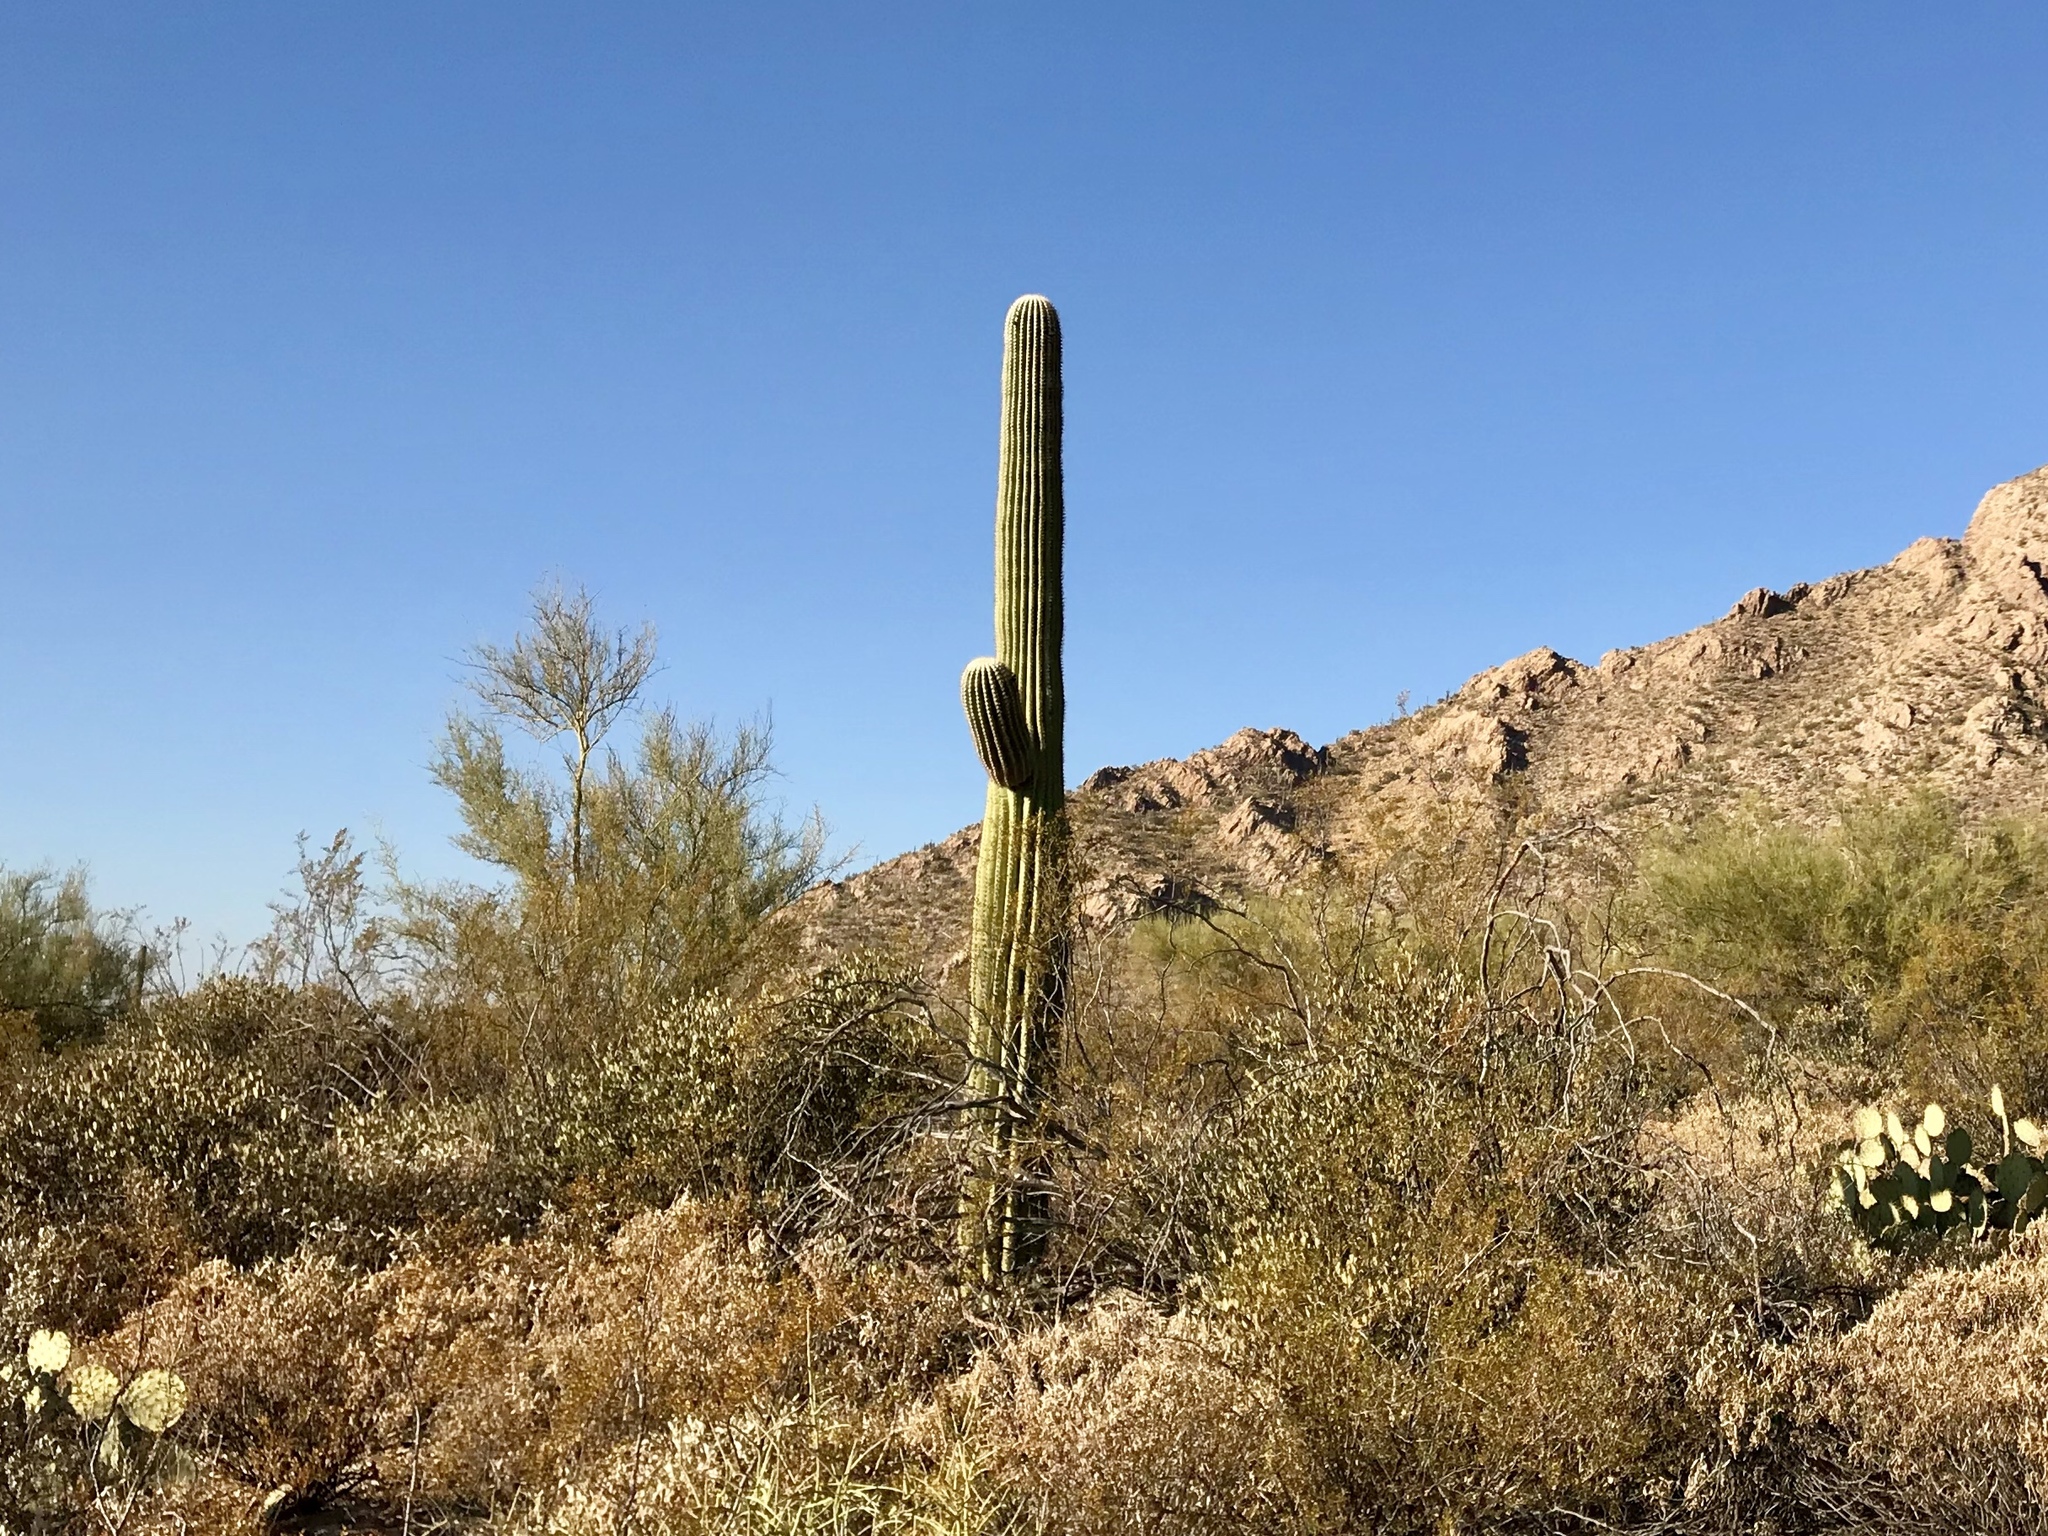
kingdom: Plantae
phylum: Tracheophyta
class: Magnoliopsida
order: Caryophyllales
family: Cactaceae
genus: Carnegiea
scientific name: Carnegiea gigantea
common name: Saguaro
